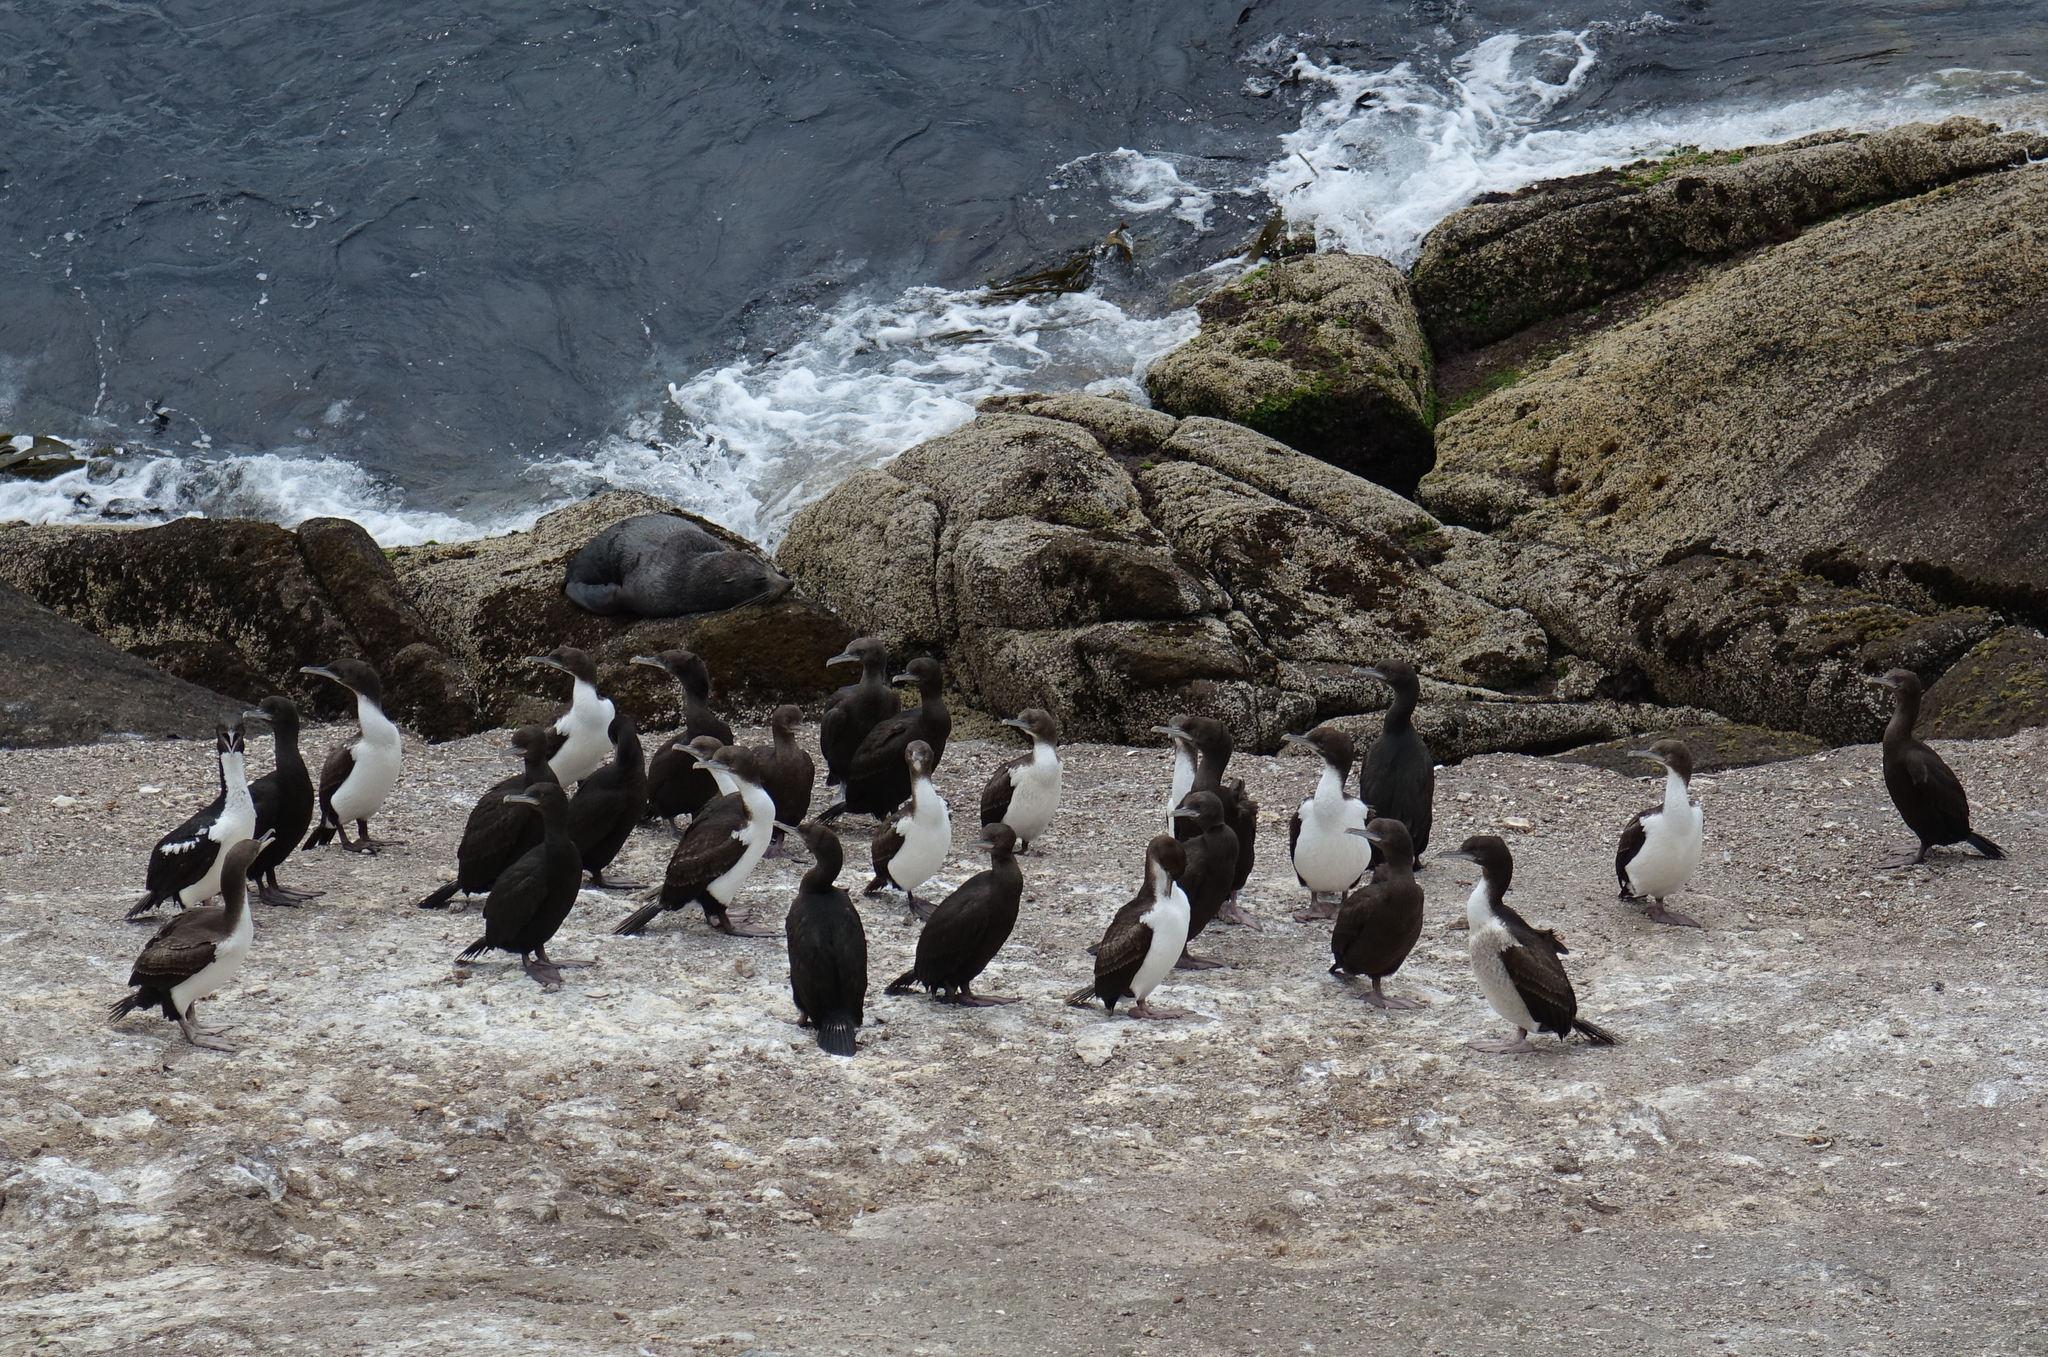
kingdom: Animalia
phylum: Chordata
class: Aves
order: Suliformes
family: Phalacrocoracidae
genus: Leucocarbo
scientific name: Leucocarbo chalconotus
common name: Stewart shag
